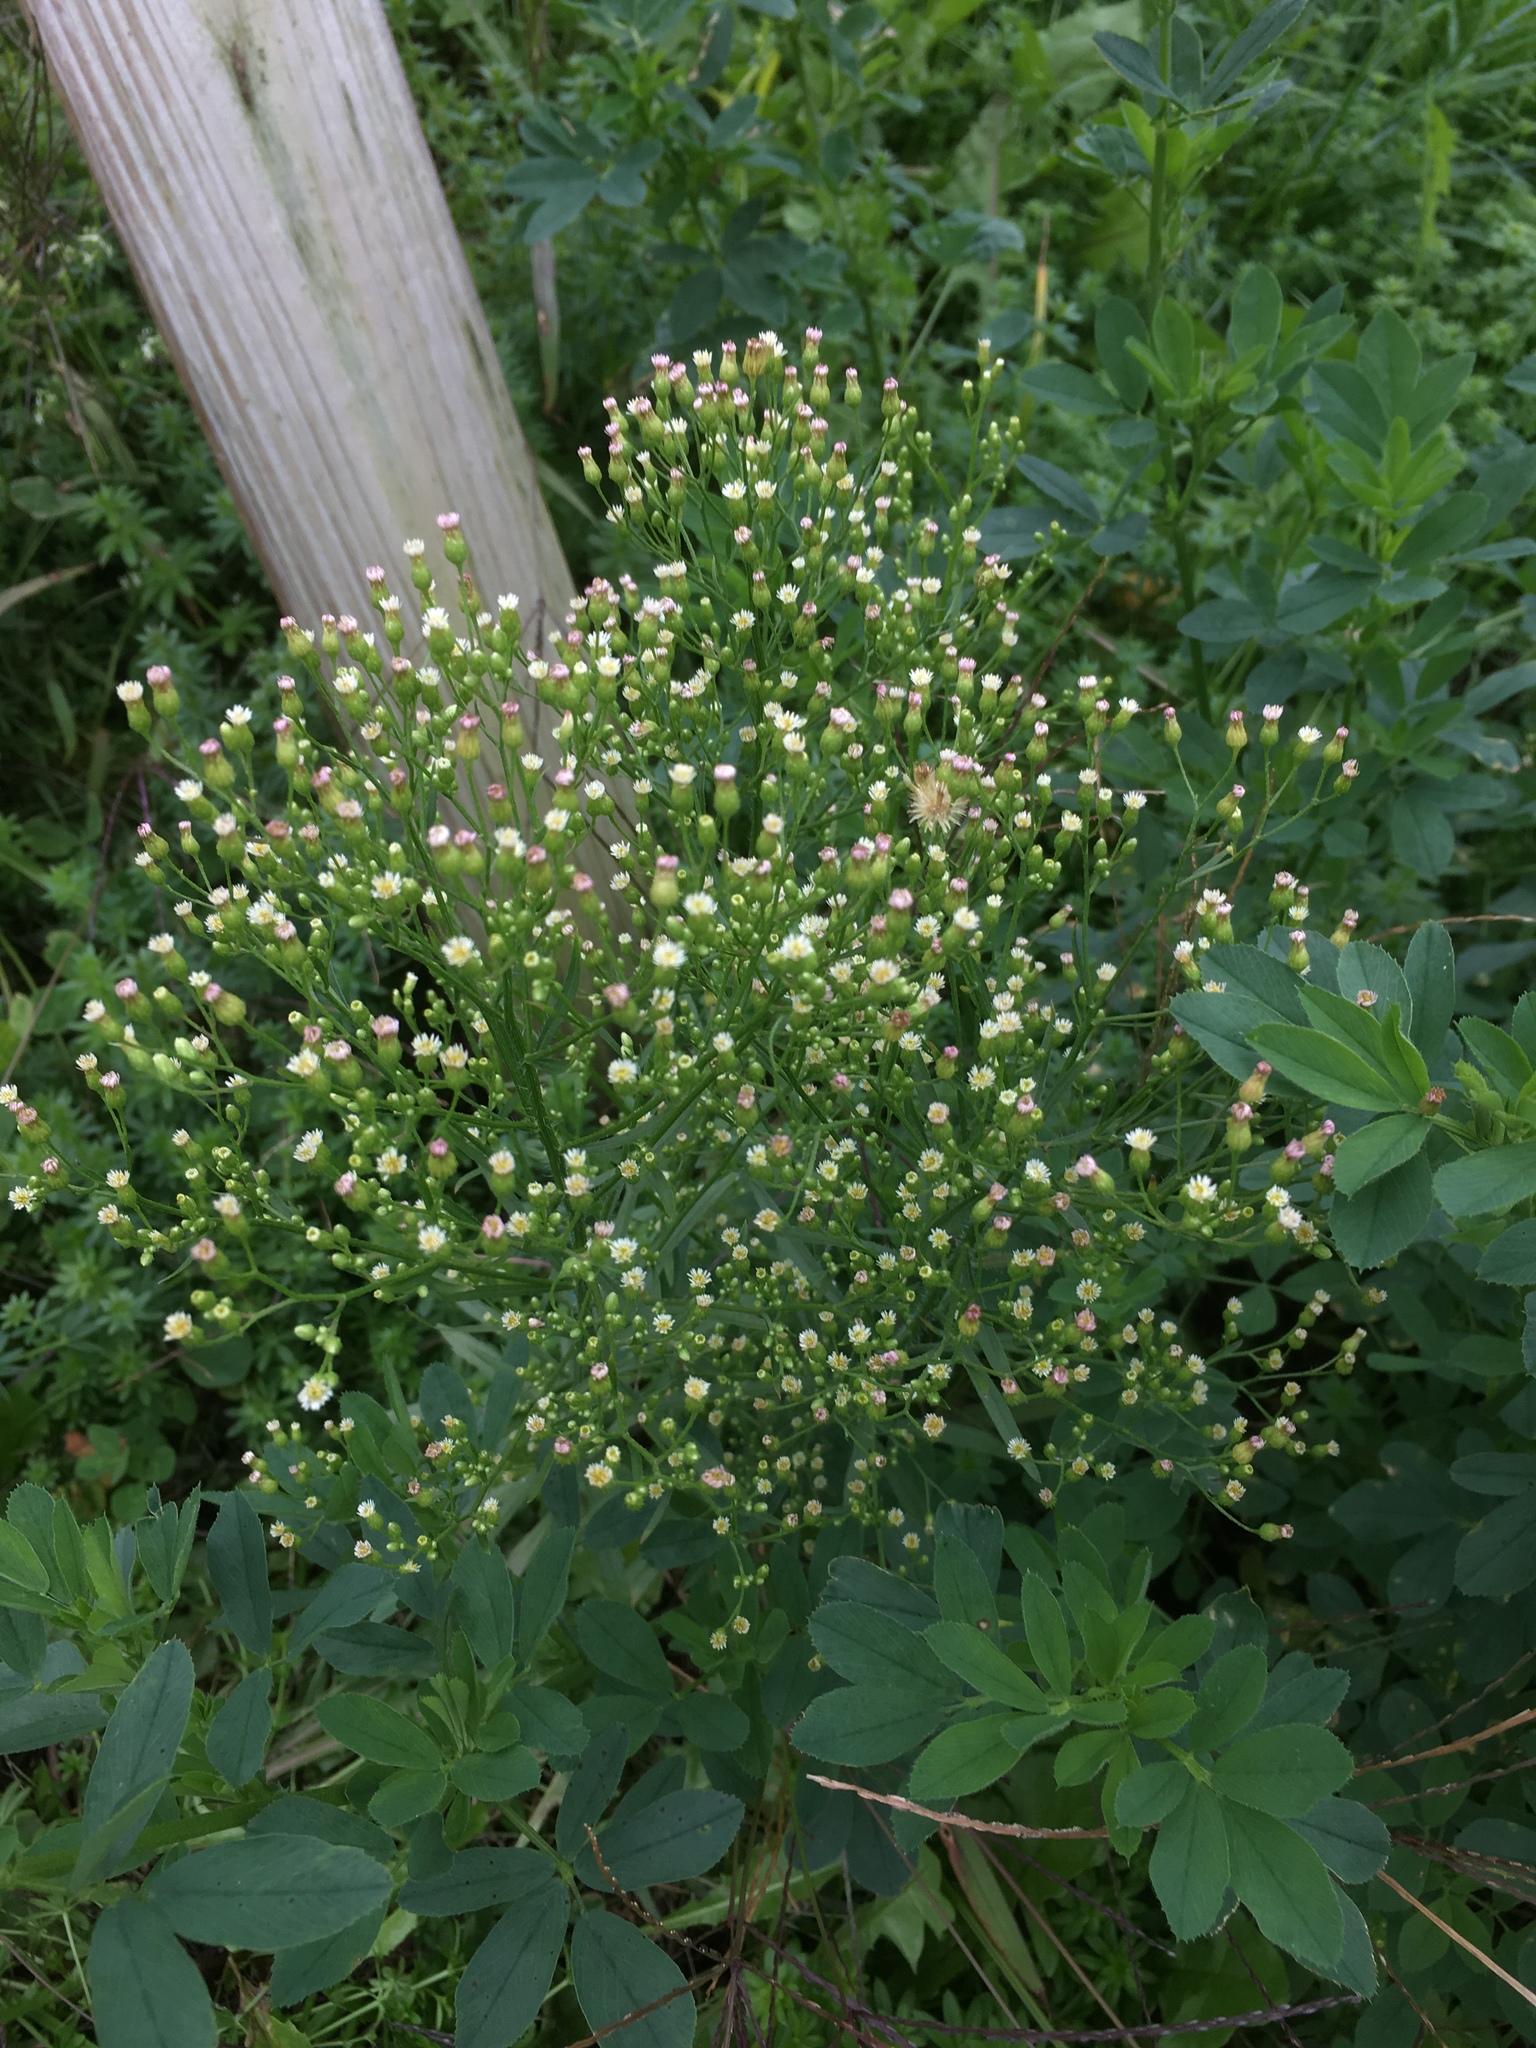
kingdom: Plantae
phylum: Tracheophyta
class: Magnoliopsida
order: Asterales
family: Asteraceae
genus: Erigeron
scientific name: Erigeron canadensis
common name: Canadian fleabane
